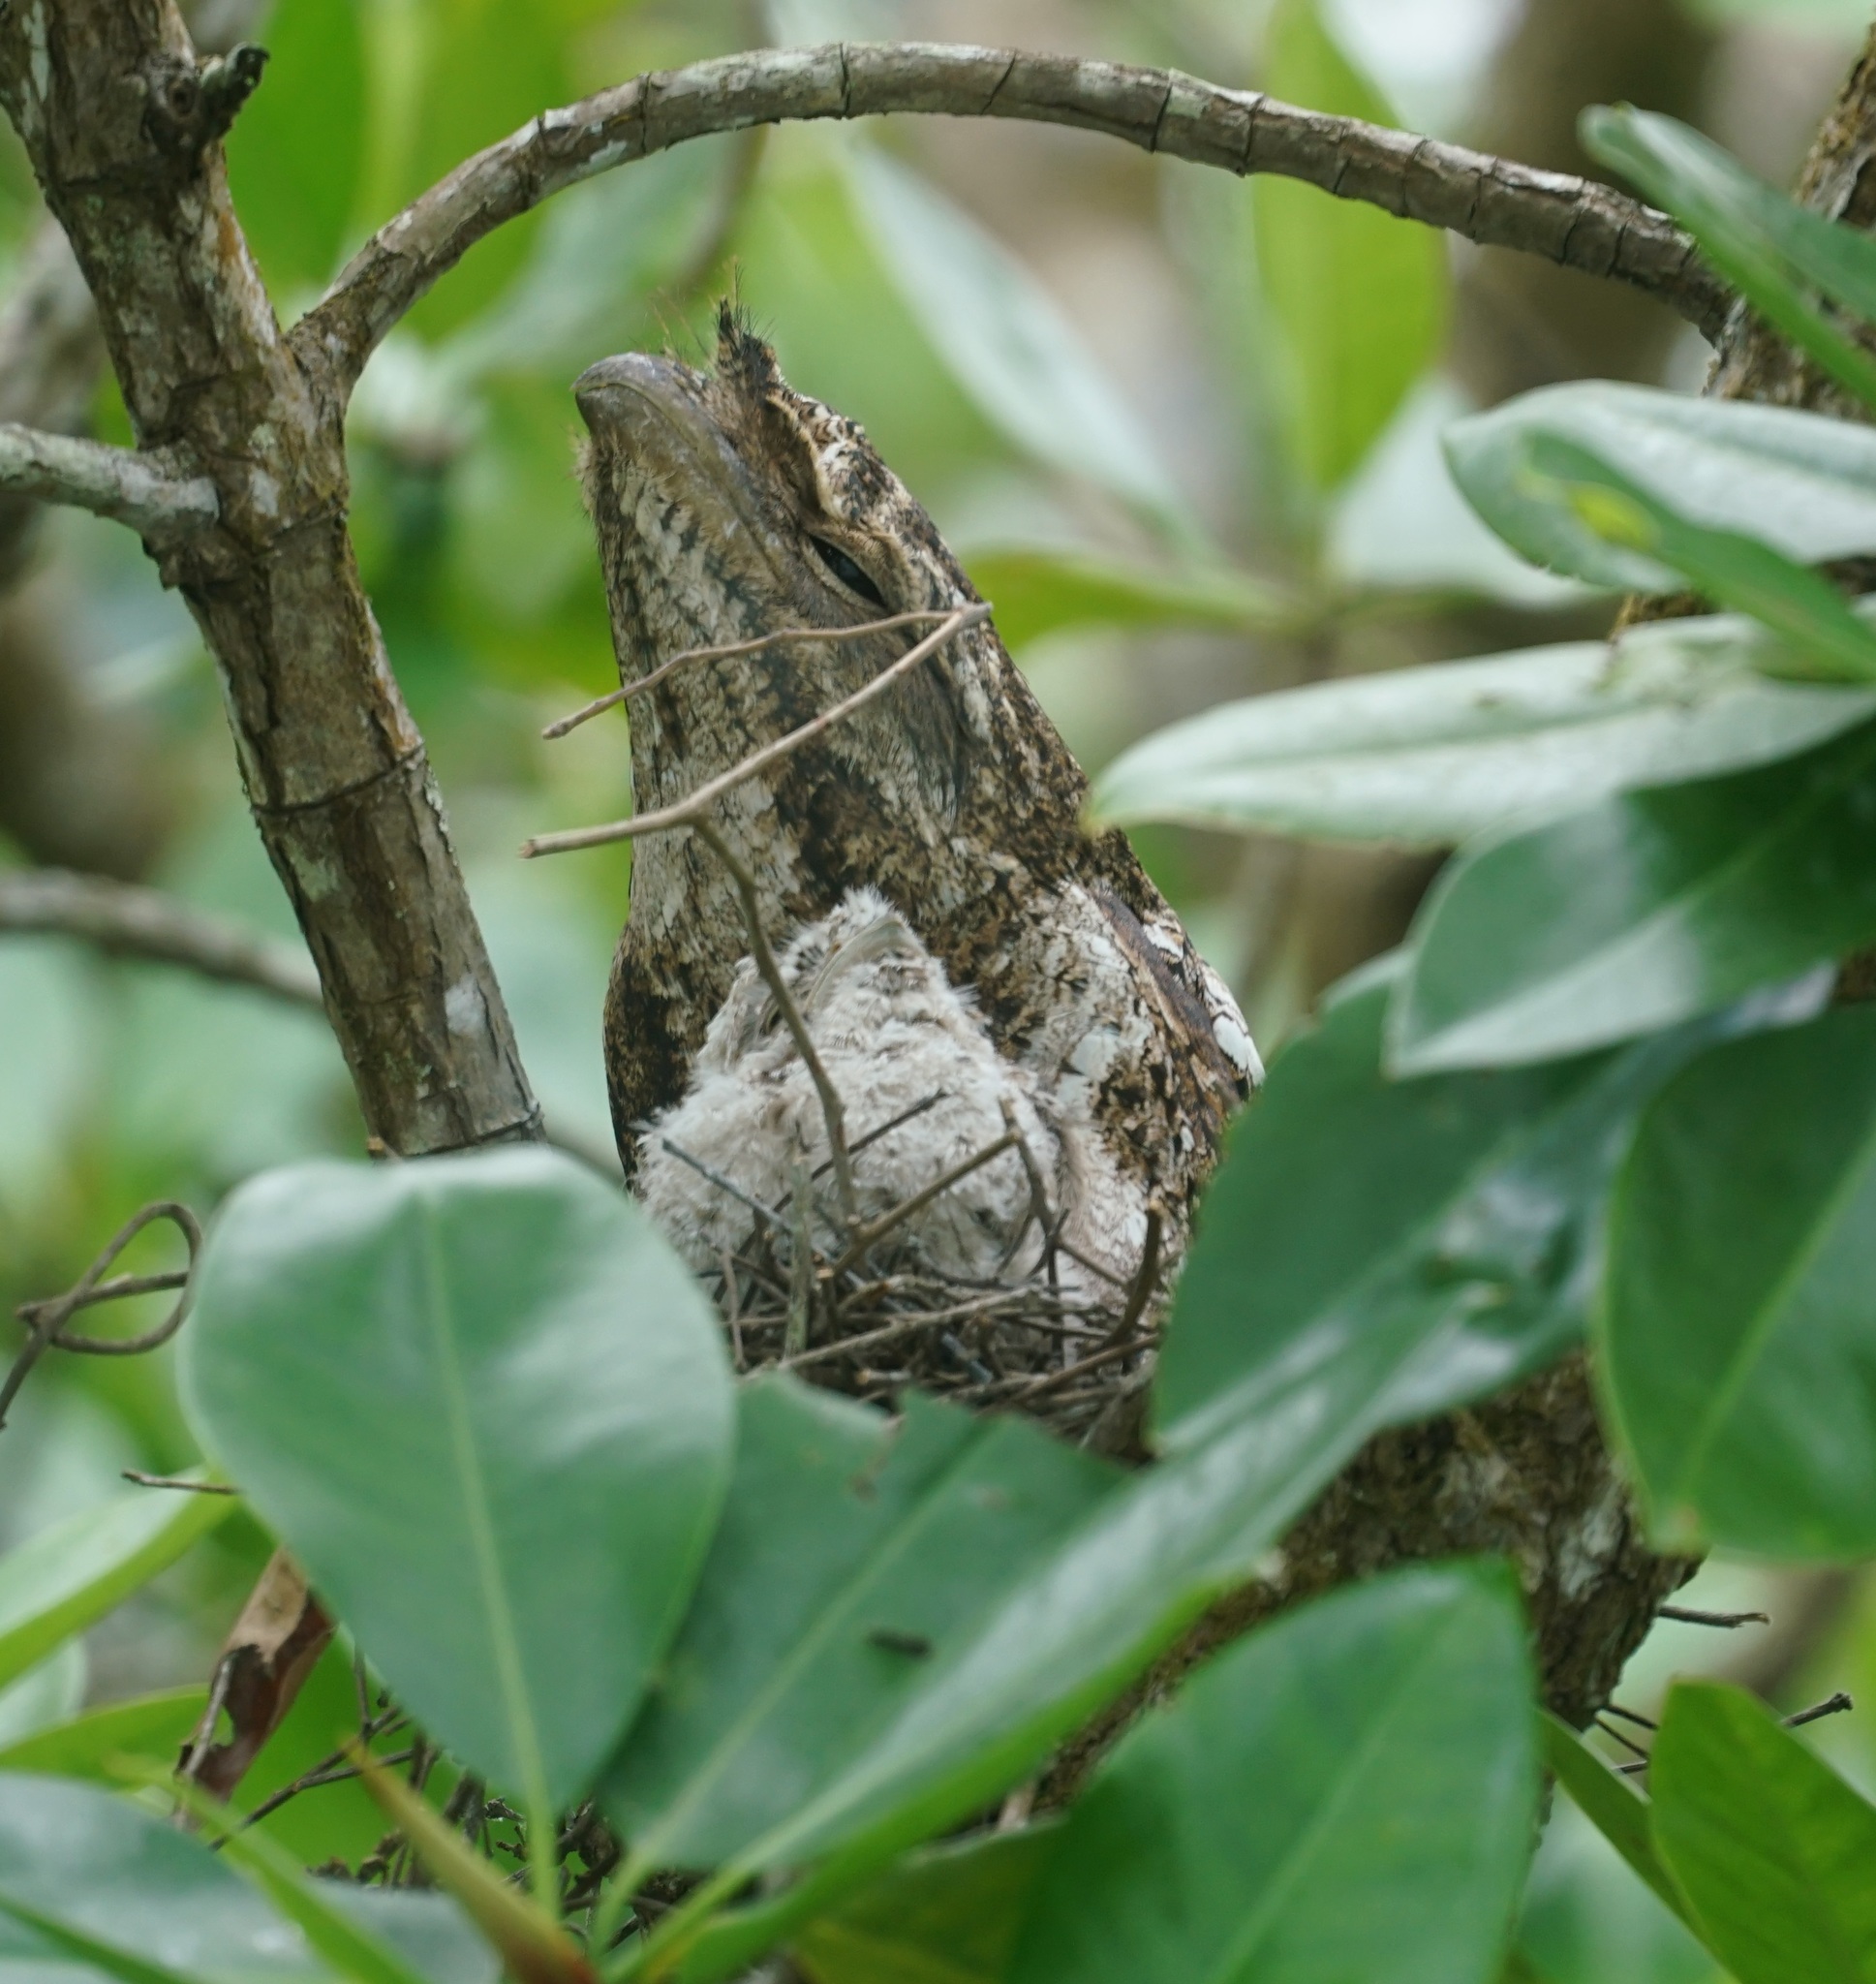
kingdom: Animalia
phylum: Chordata
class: Aves
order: Caprimulgiformes
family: Podargidae
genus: Podargus
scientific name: Podargus papuensis
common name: Papuan frogmouth
